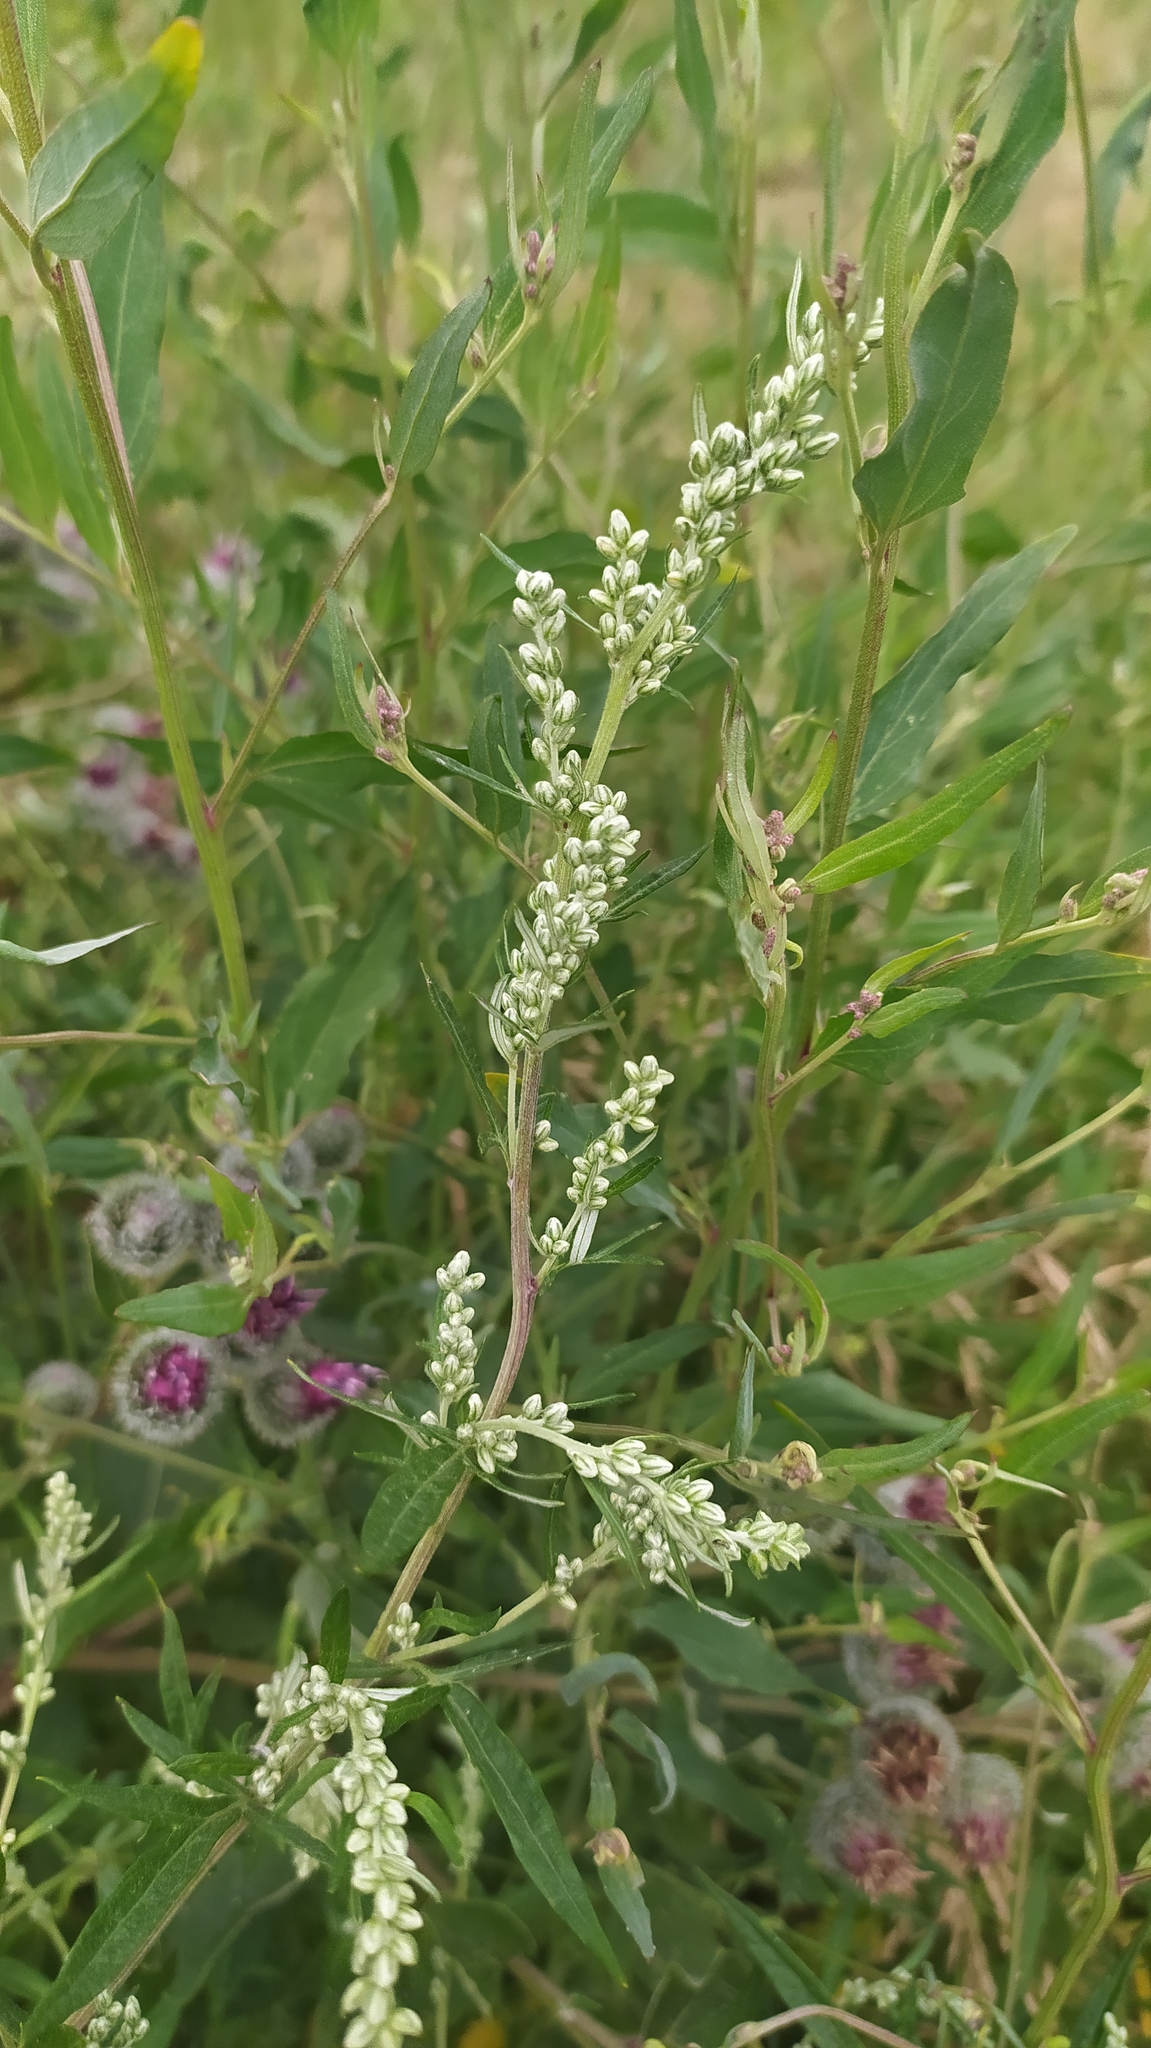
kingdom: Plantae
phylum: Tracheophyta
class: Magnoliopsida
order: Asterales
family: Asteraceae
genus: Artemisia
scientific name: Artemisia vulgaris
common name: Mugwort
